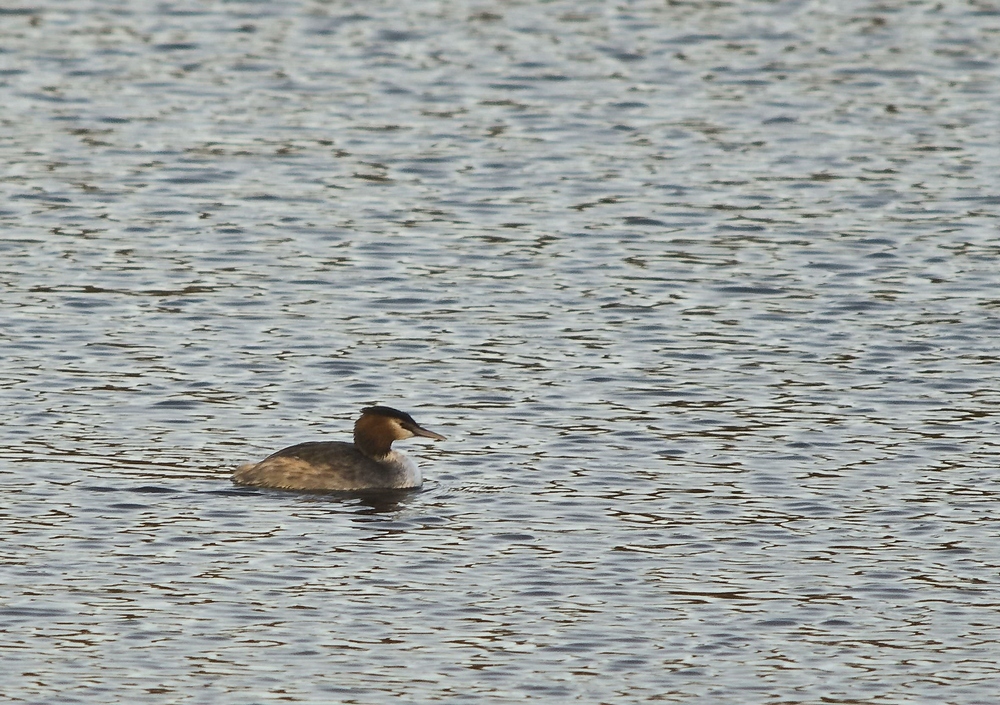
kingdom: Animalia
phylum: Chordata
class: Aves
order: Podicipediformes
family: Podicipedidae
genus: Podiceps
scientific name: Podiceps cristatus
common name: Great crested grebe
